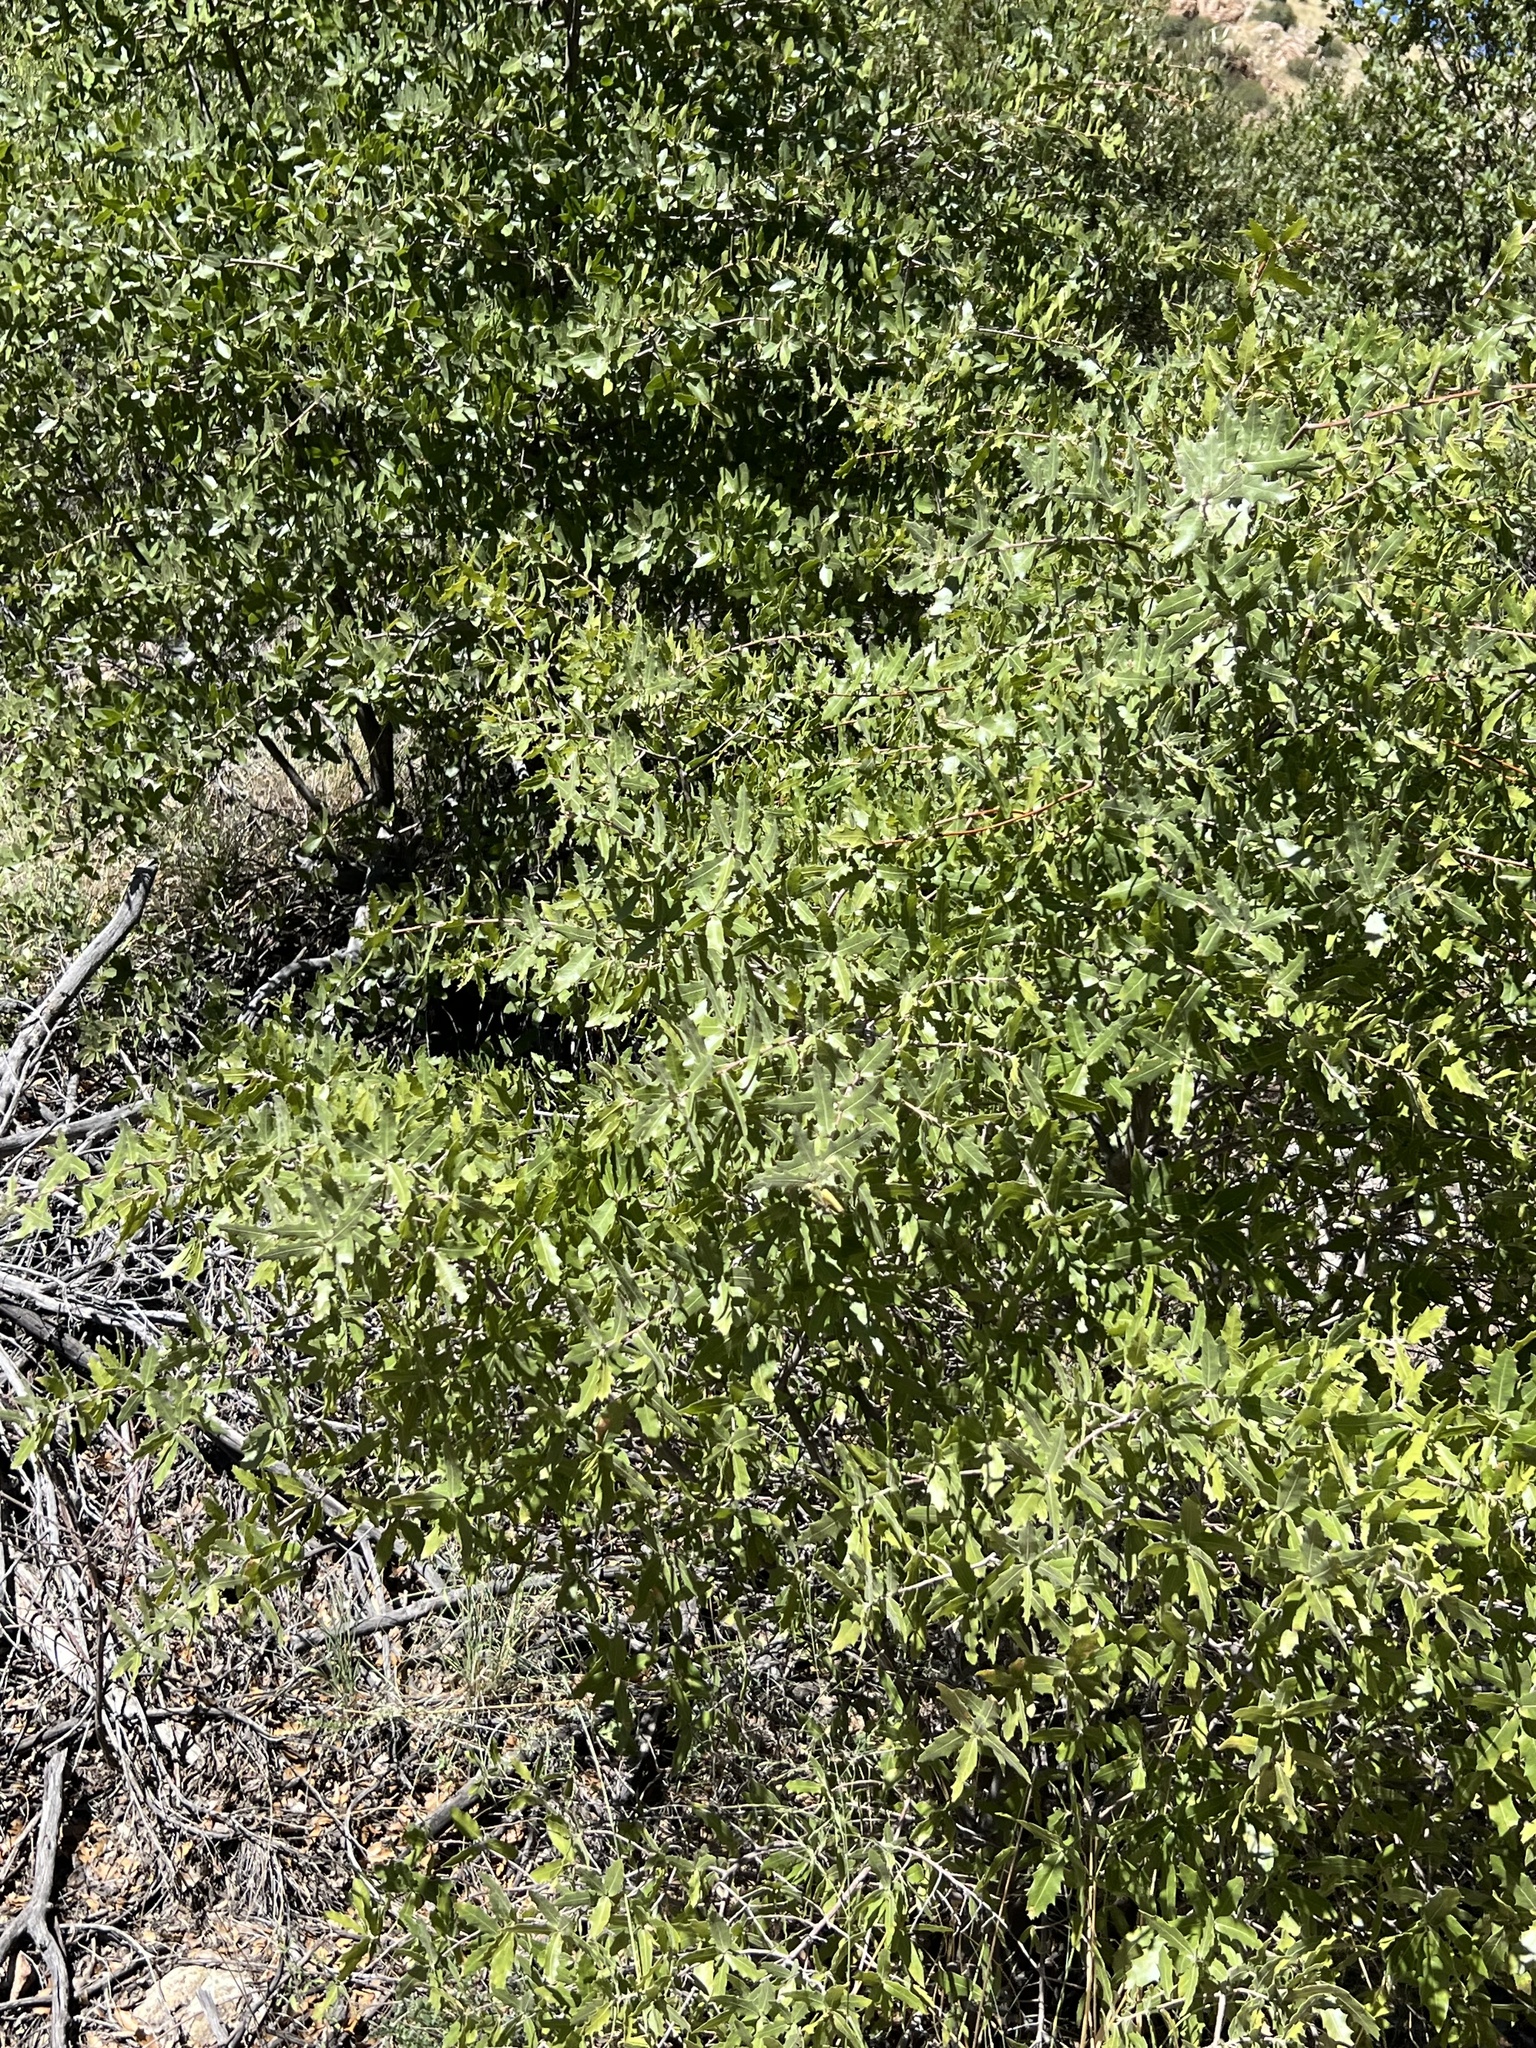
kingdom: Plantae
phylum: Tracheophyta
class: Magnoliopsida
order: Fagales
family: Fagaceae
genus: Quercus
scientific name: Quercus emoryi
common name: Emory oak
